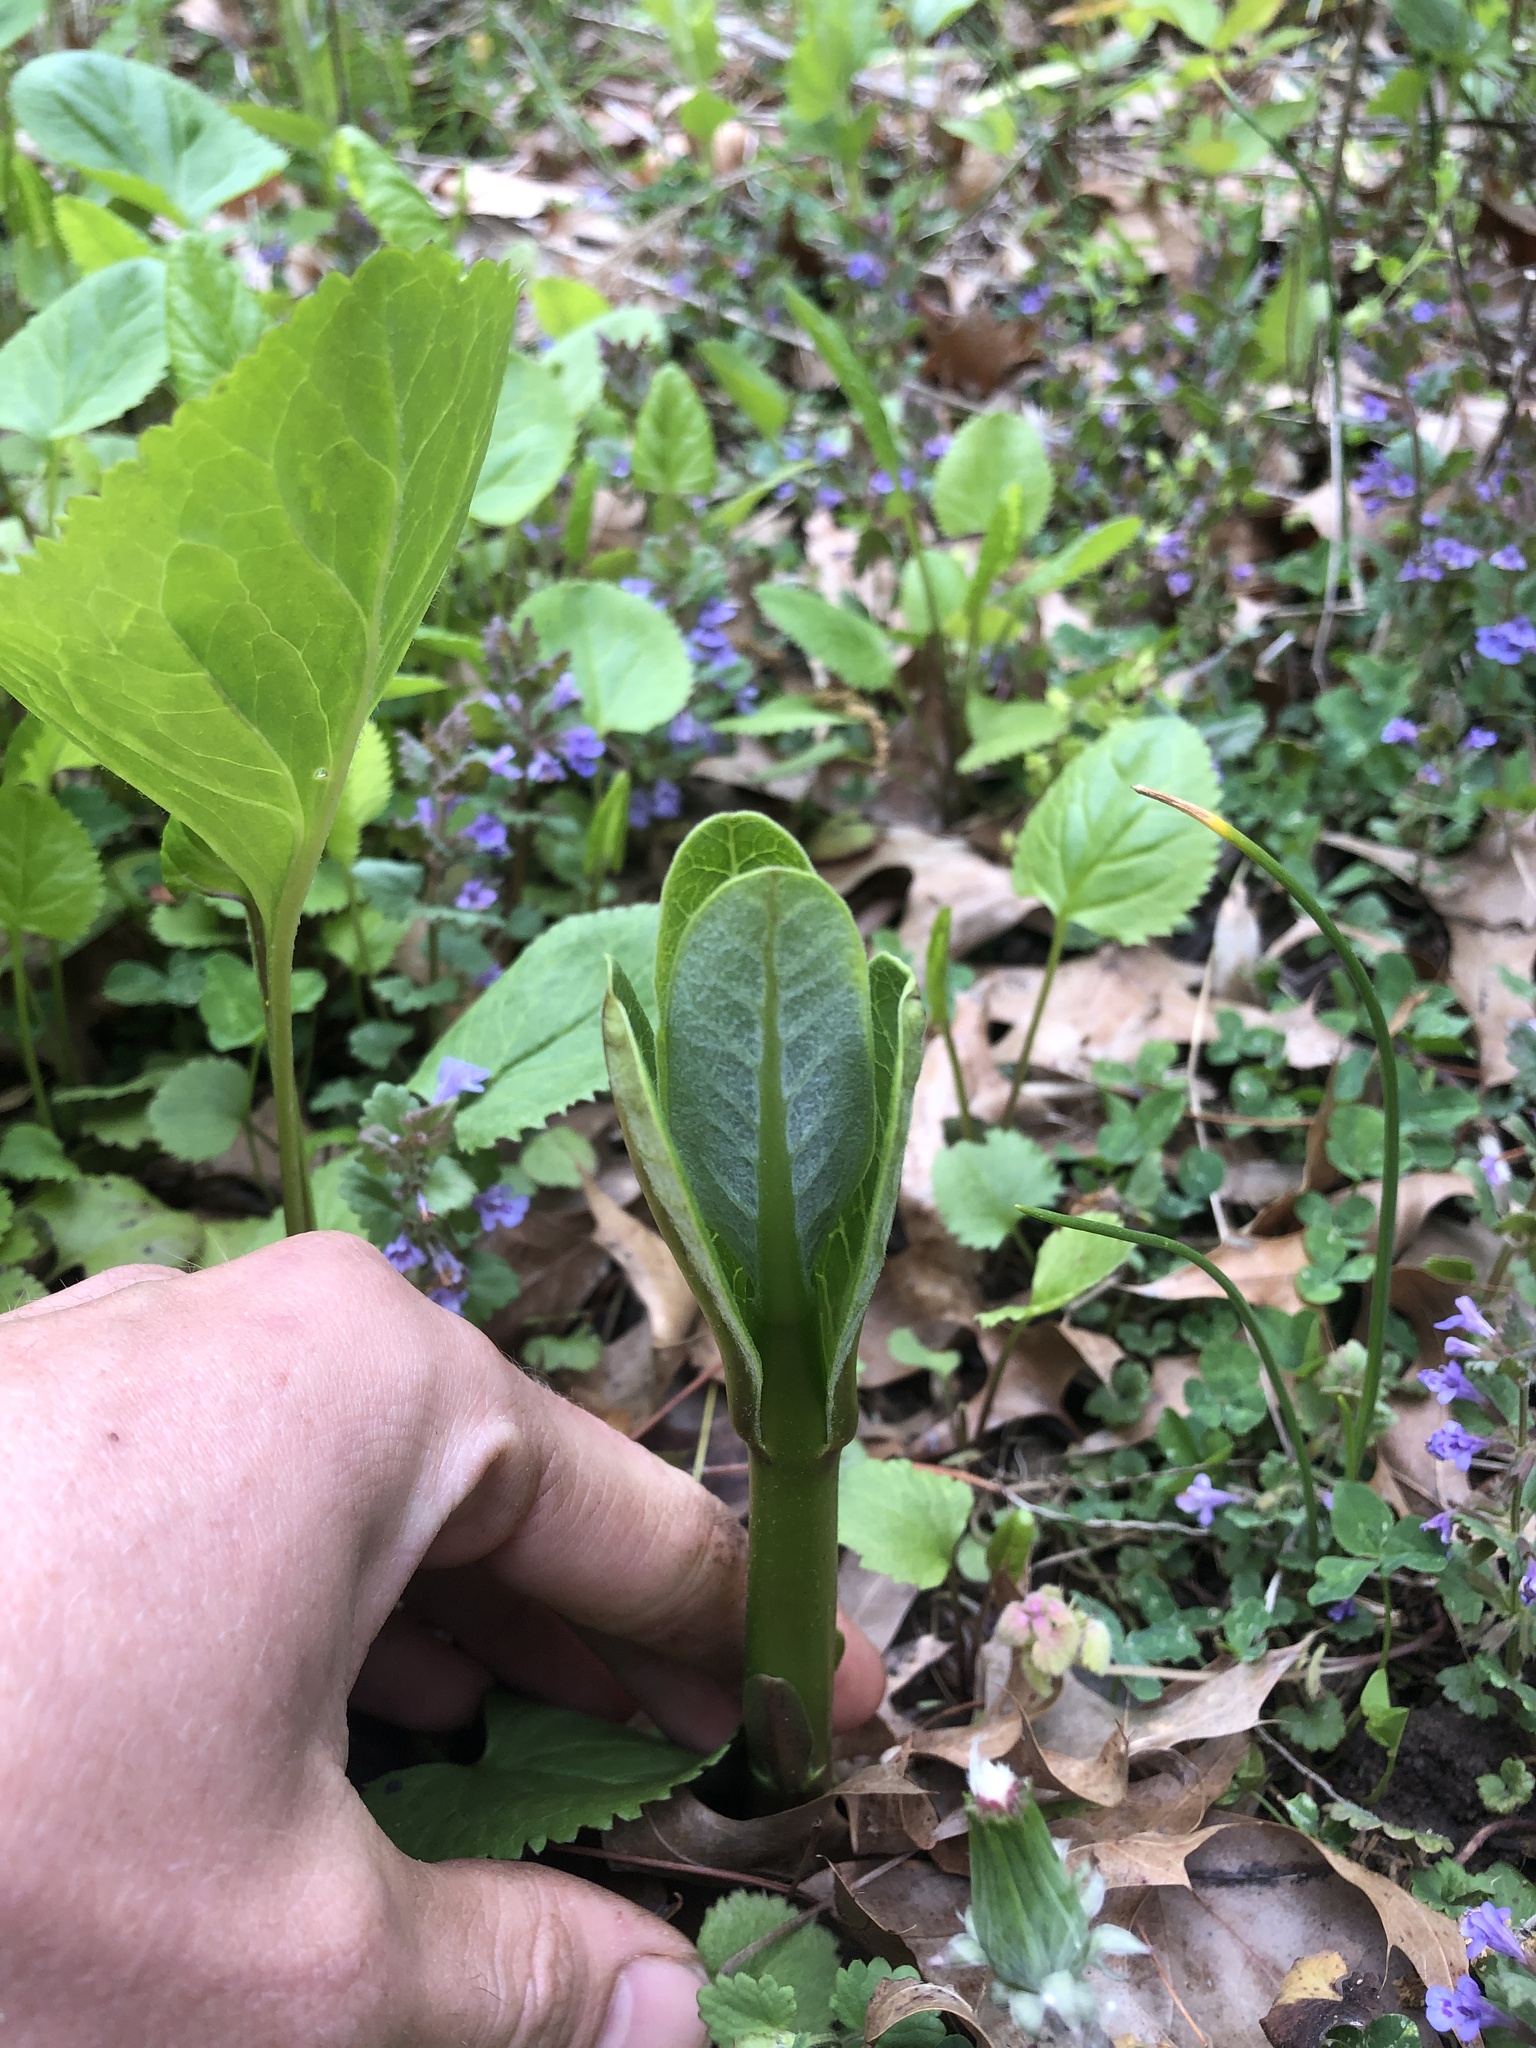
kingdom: Plantae
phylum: Tracheophyta
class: Magnoliopsida
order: Gentianales
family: Apocynaceae
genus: Asclepias
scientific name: Asclepias syriaca
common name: Common milkweed
